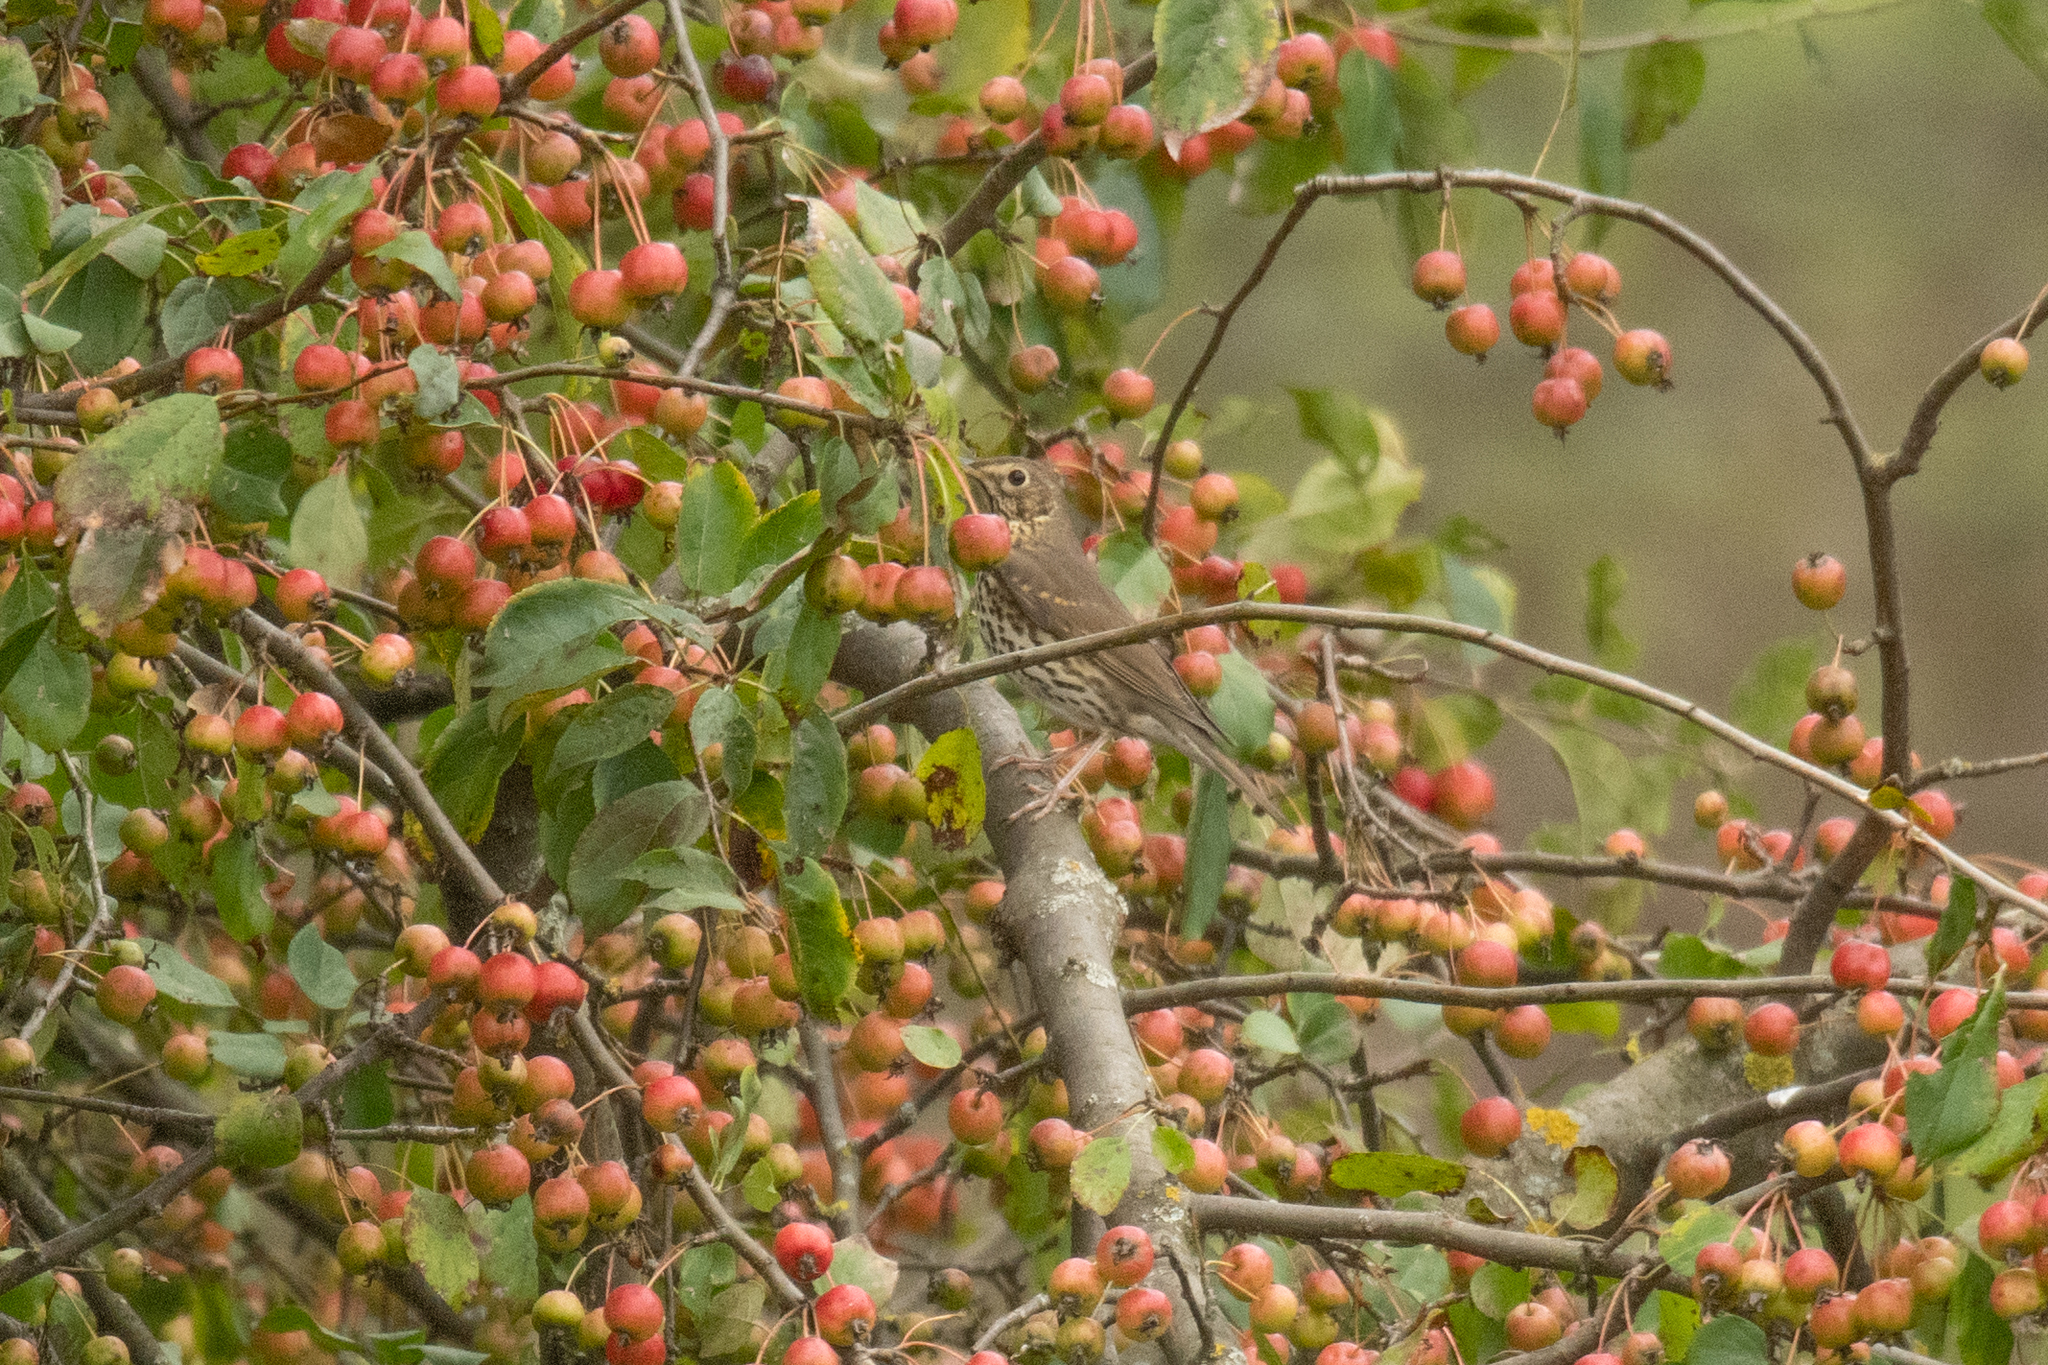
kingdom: Animalia
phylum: Chordata
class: Aves
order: Passeriformes
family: Turdidae
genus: Turdus
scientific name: Turdus philomelos
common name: Song thrush
